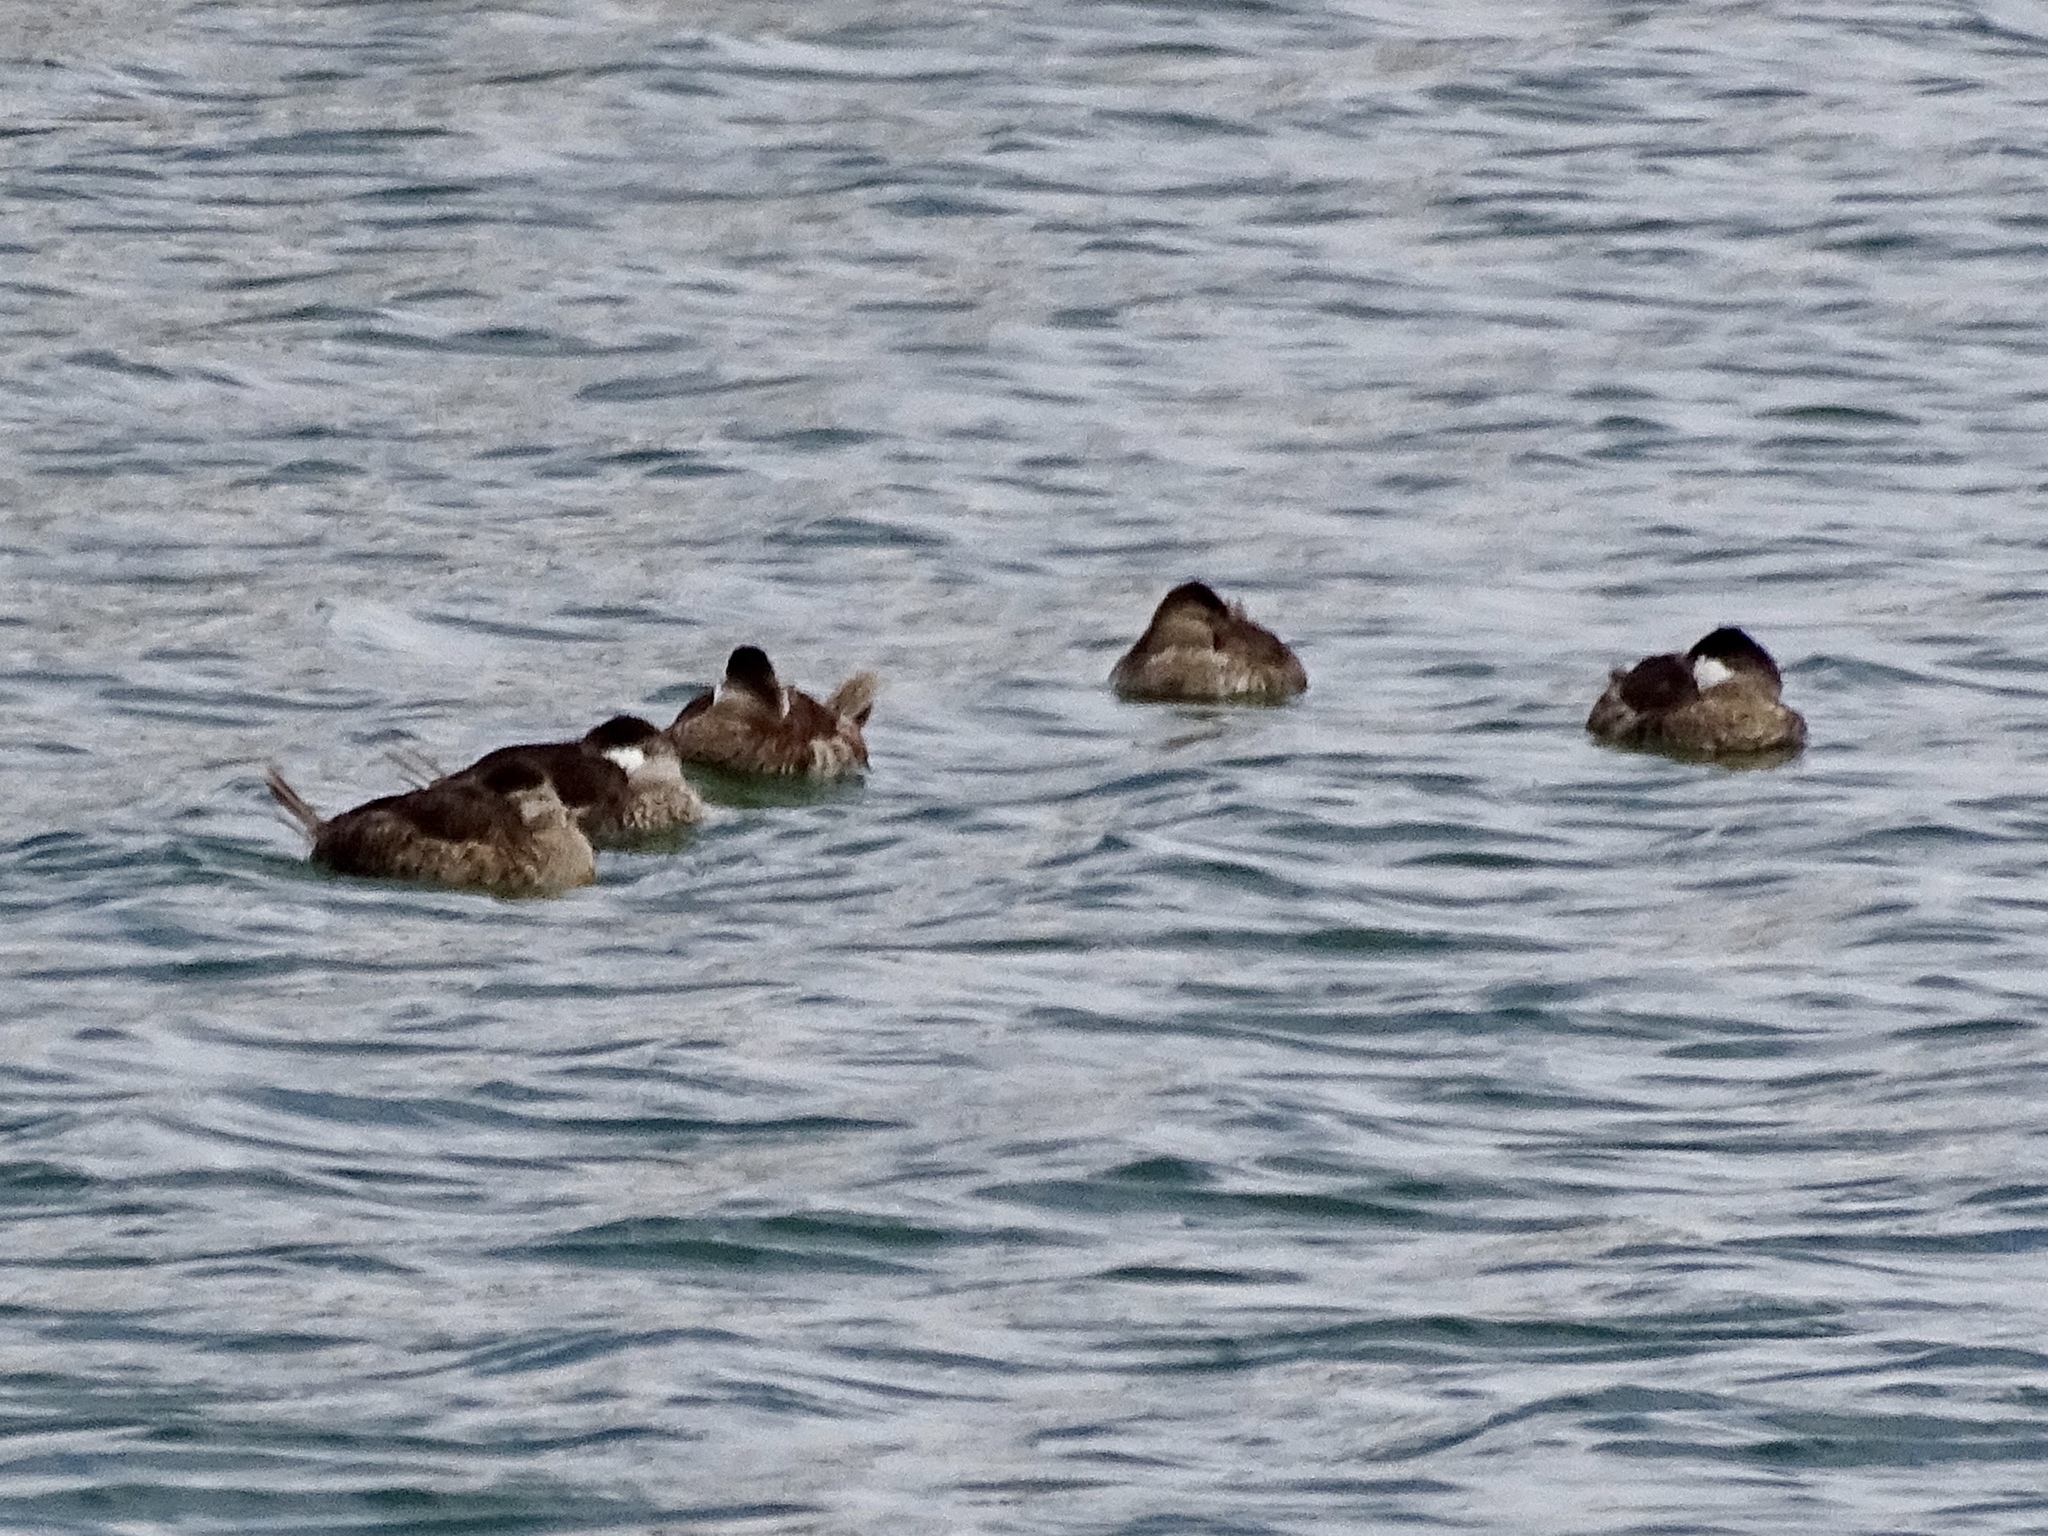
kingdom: Animalia
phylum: Chordata
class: Aves
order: Anseriformes
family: Anatidae
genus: Oxyura
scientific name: Oxyura jamaicensis
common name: Ruddy duck
